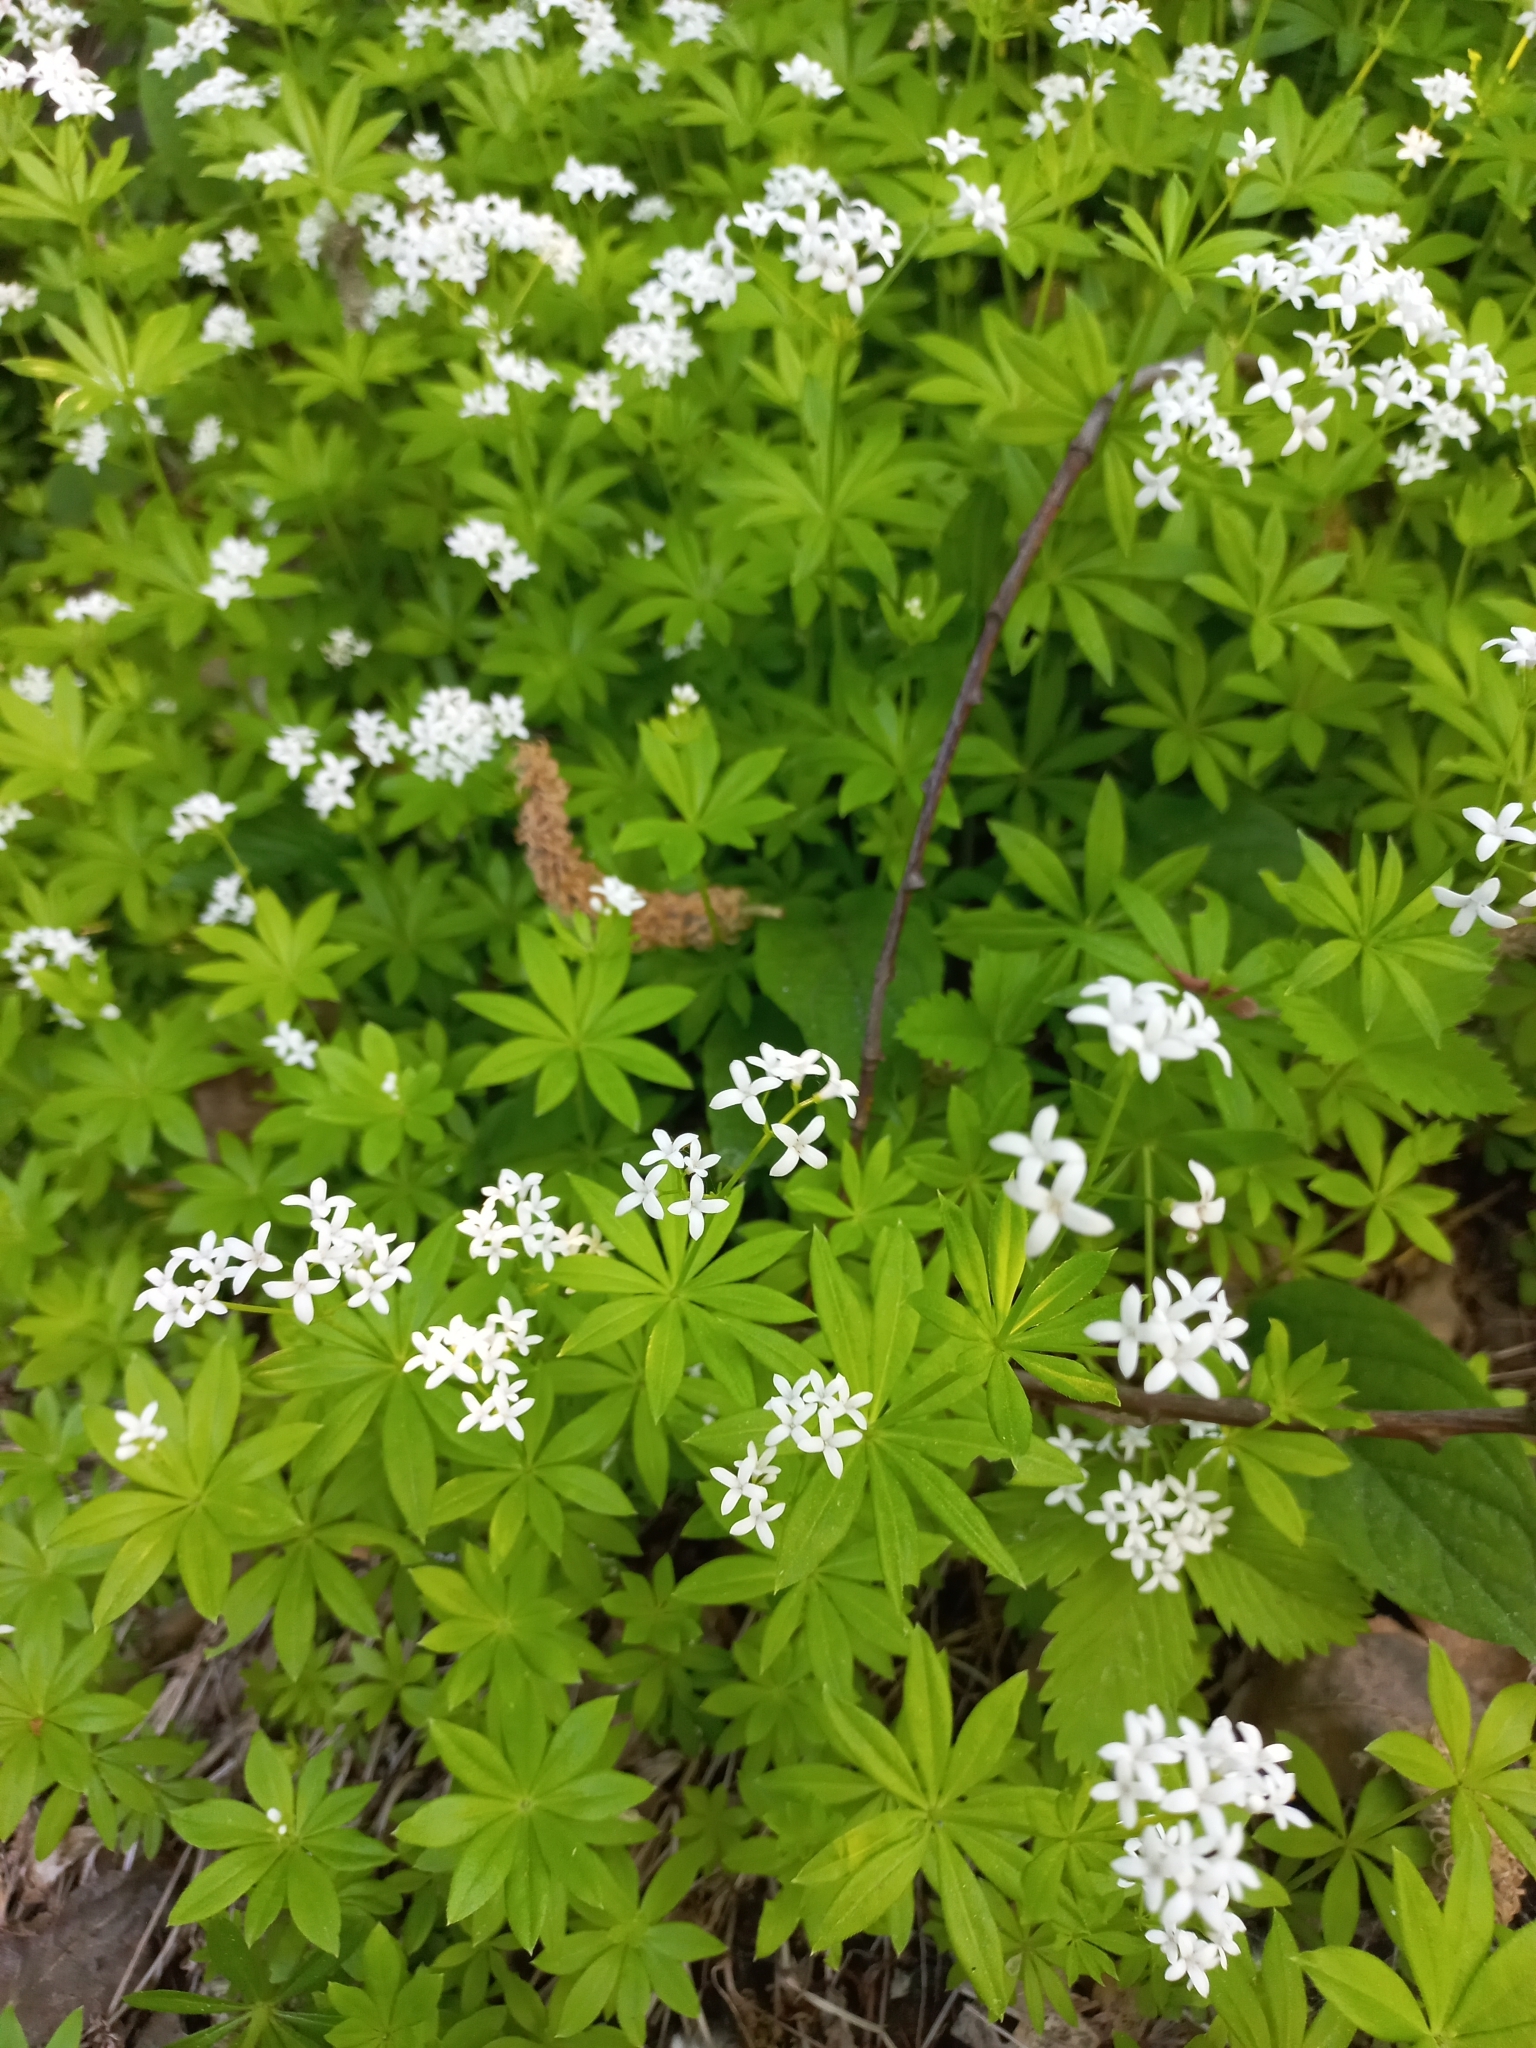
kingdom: Plantae
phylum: Tracheophyta
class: Magnoliopsida
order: Gentianales
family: Rubiaceae
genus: Galium
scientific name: Galium odoratum
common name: Sweet woodruff
